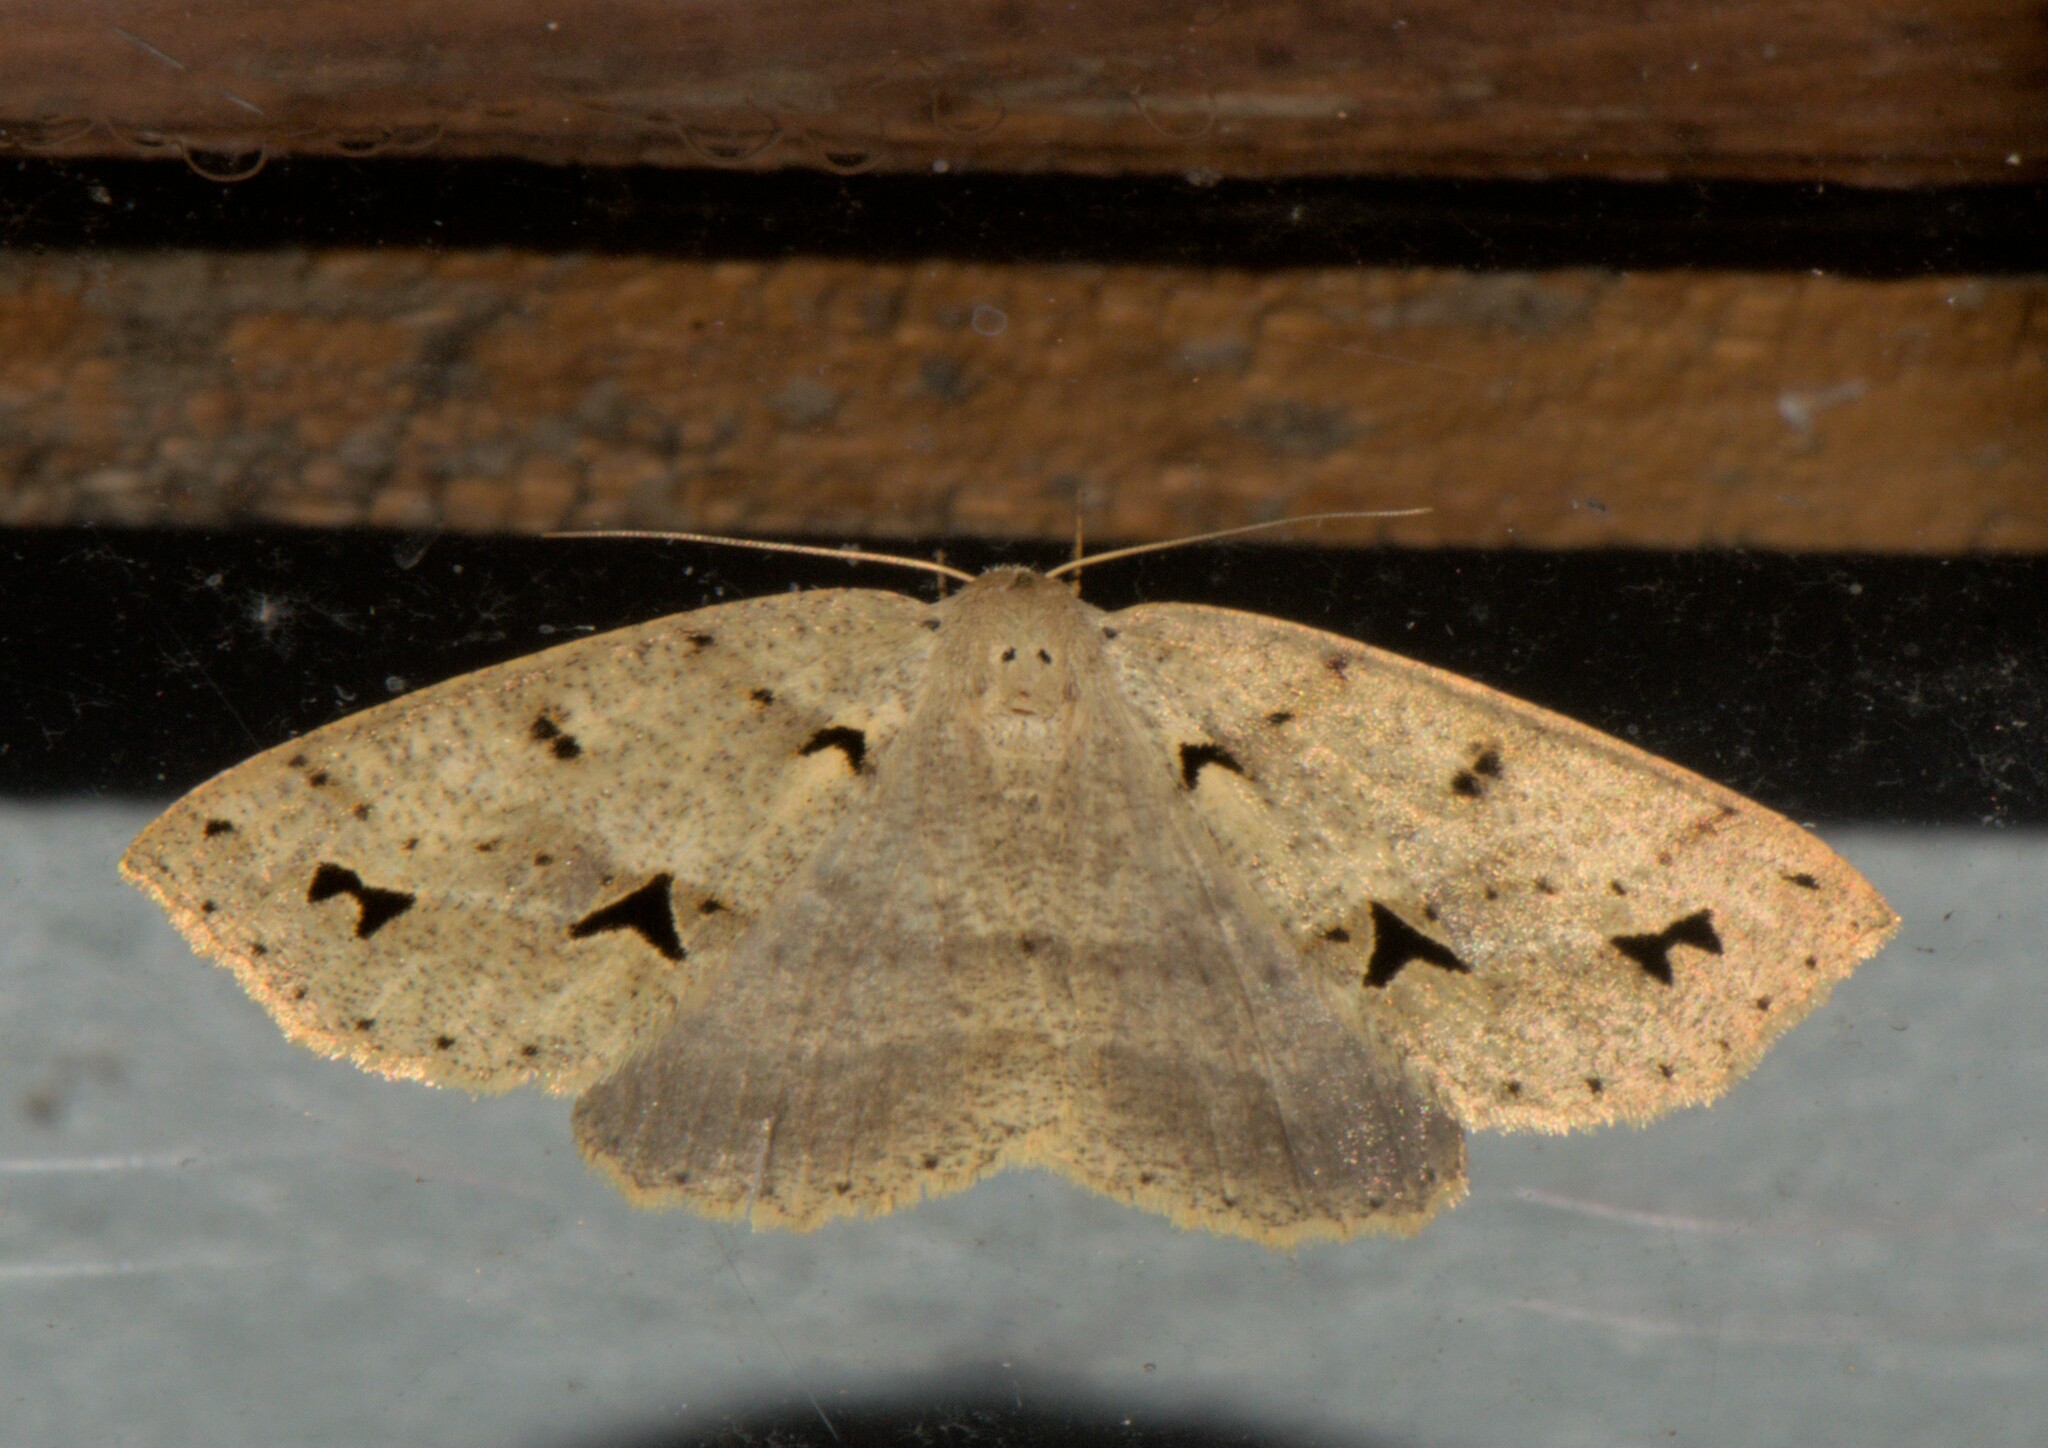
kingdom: Animalia
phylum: Arthropoda
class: Insecta
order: Lepidoptera
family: Geometridae
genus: Psyra
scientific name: Psyra cuneata
